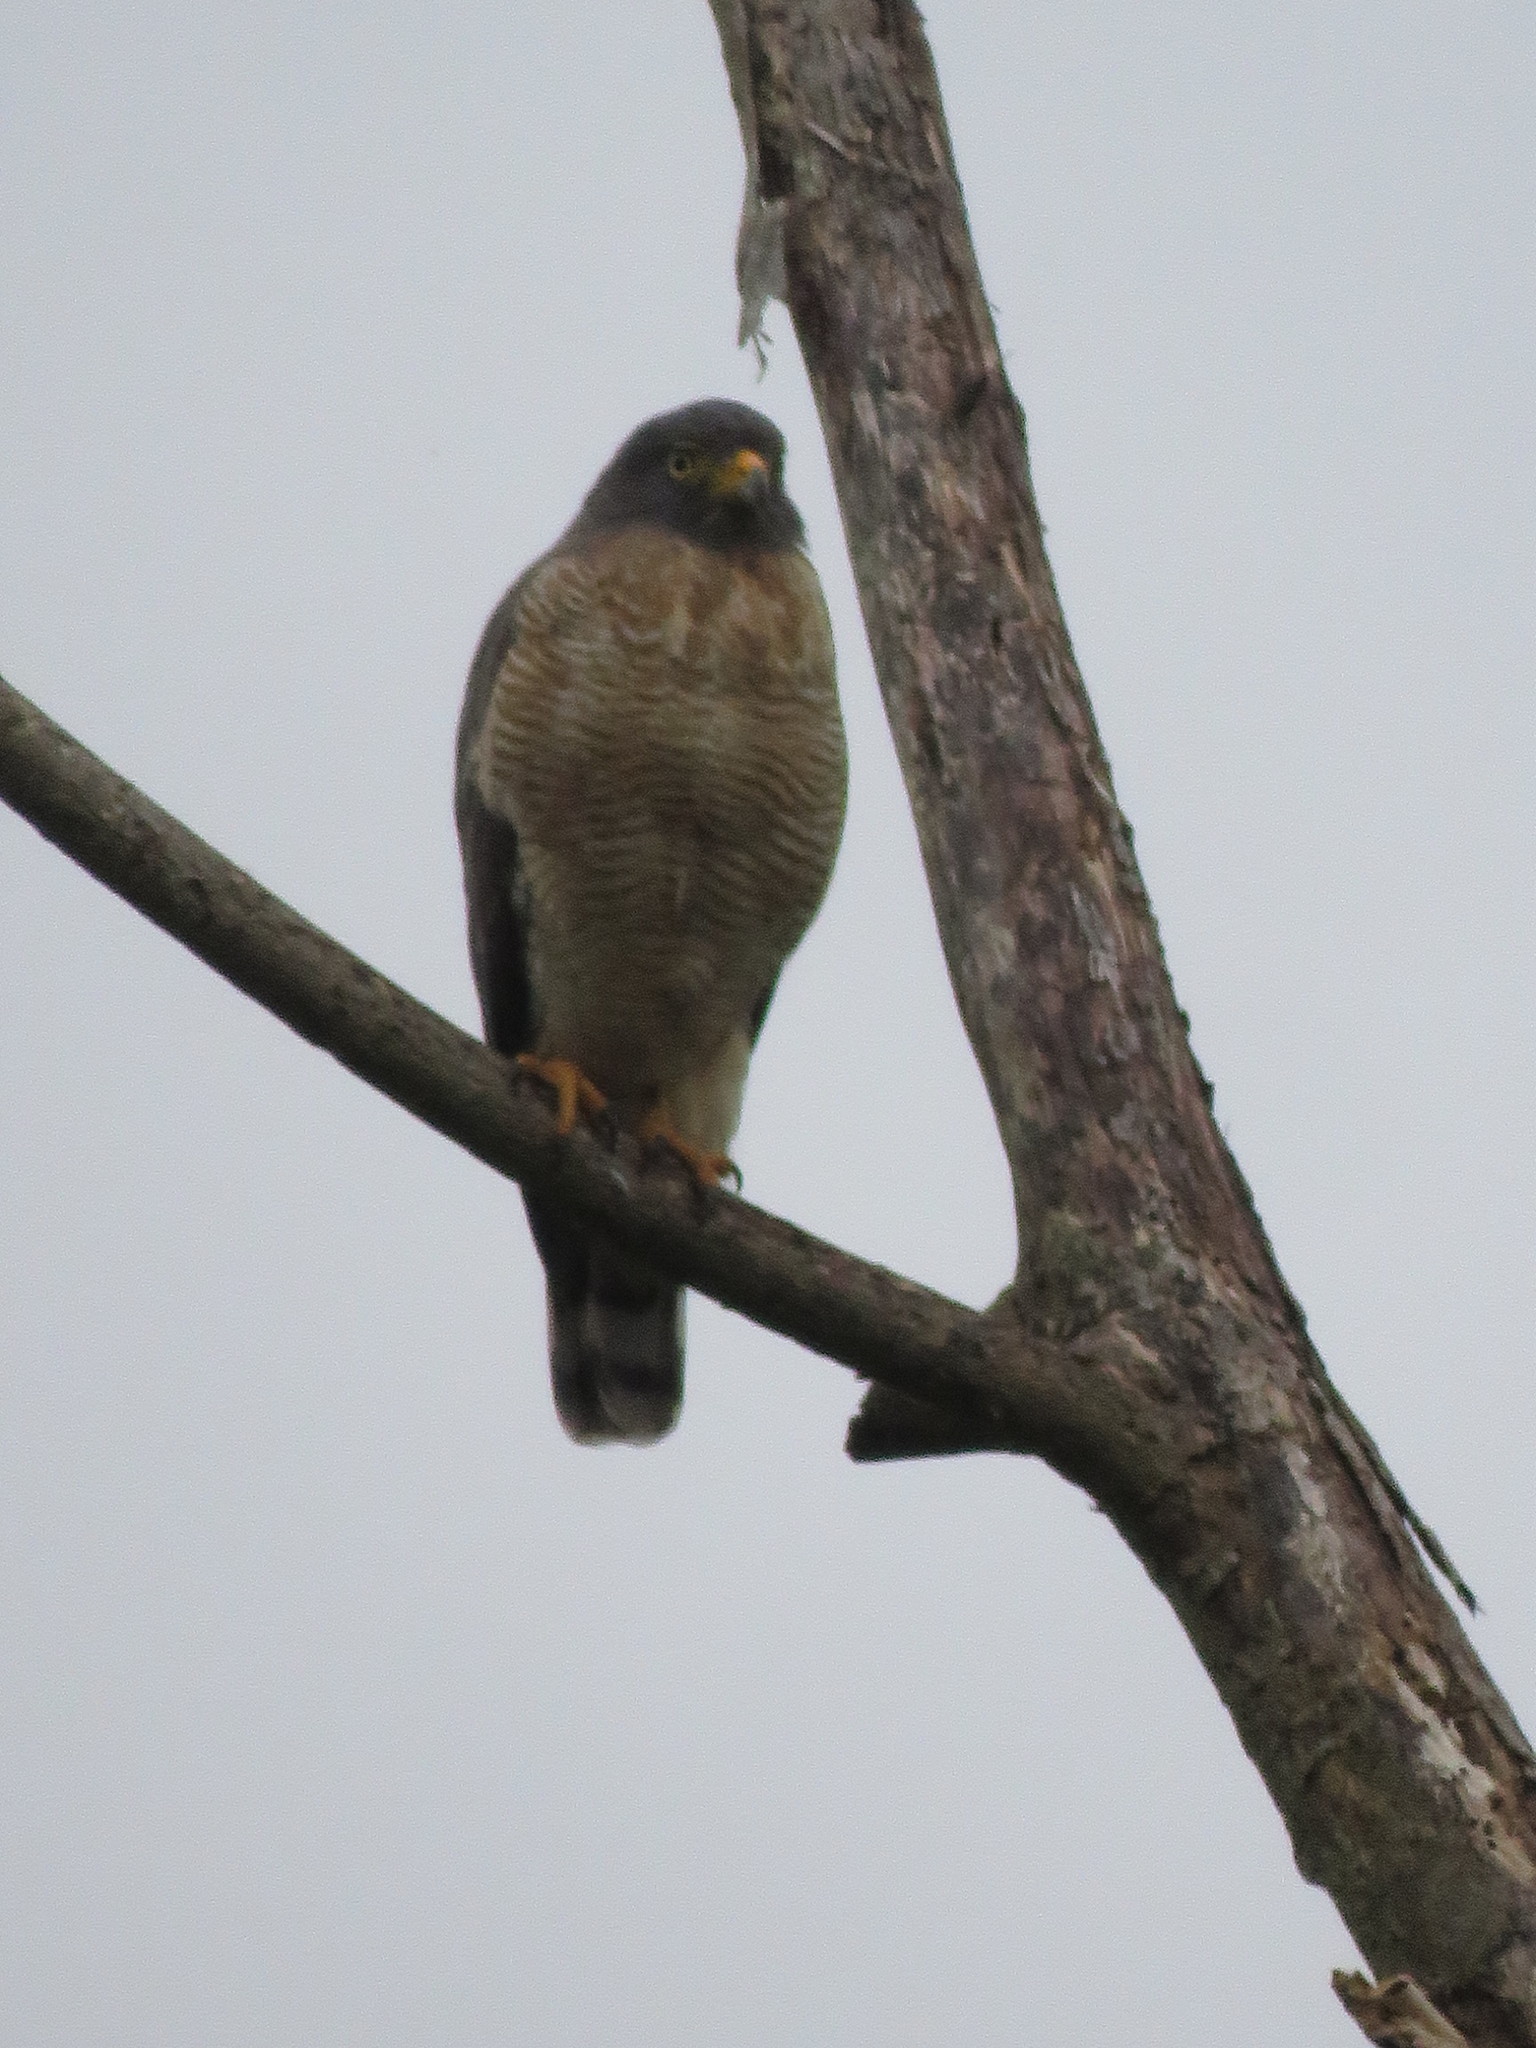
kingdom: Animalia
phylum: Chordata
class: Aves
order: Accipitriformes
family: Accipitridae
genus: Rupornis
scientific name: Rupornis magnirostris
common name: Roadside hawk
